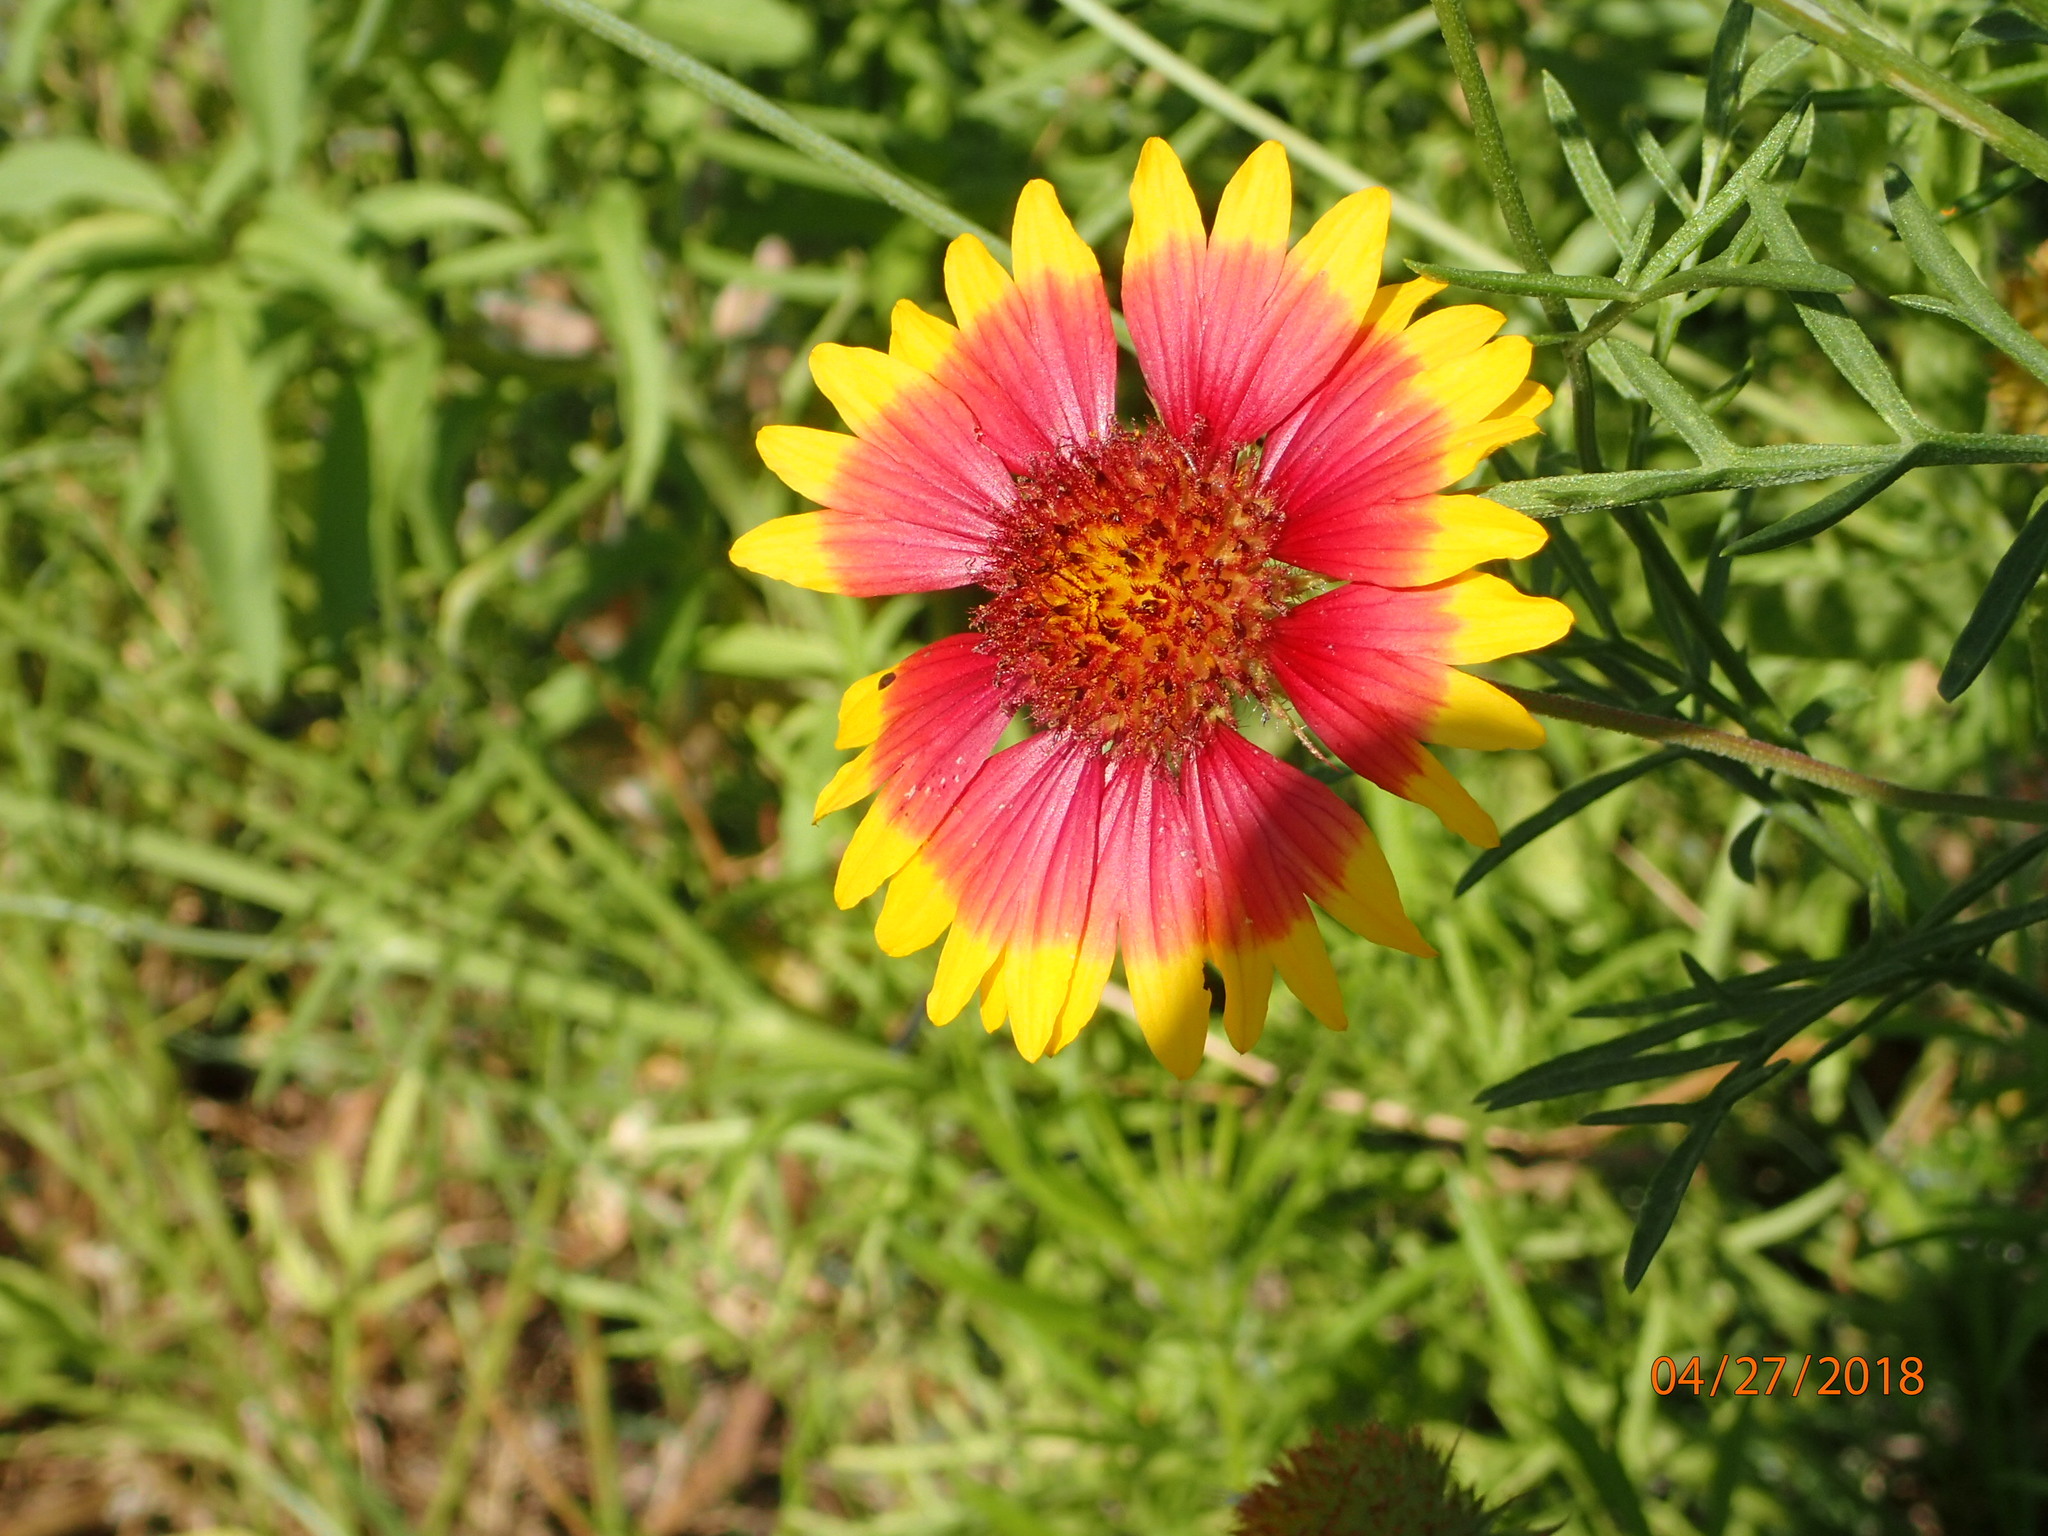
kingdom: Plantae
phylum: Tracheophyta
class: Magnoliopsida
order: Asterales
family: Asteraceae
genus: Gaillardia
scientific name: Gaillardia pulchella
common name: Firewheel
